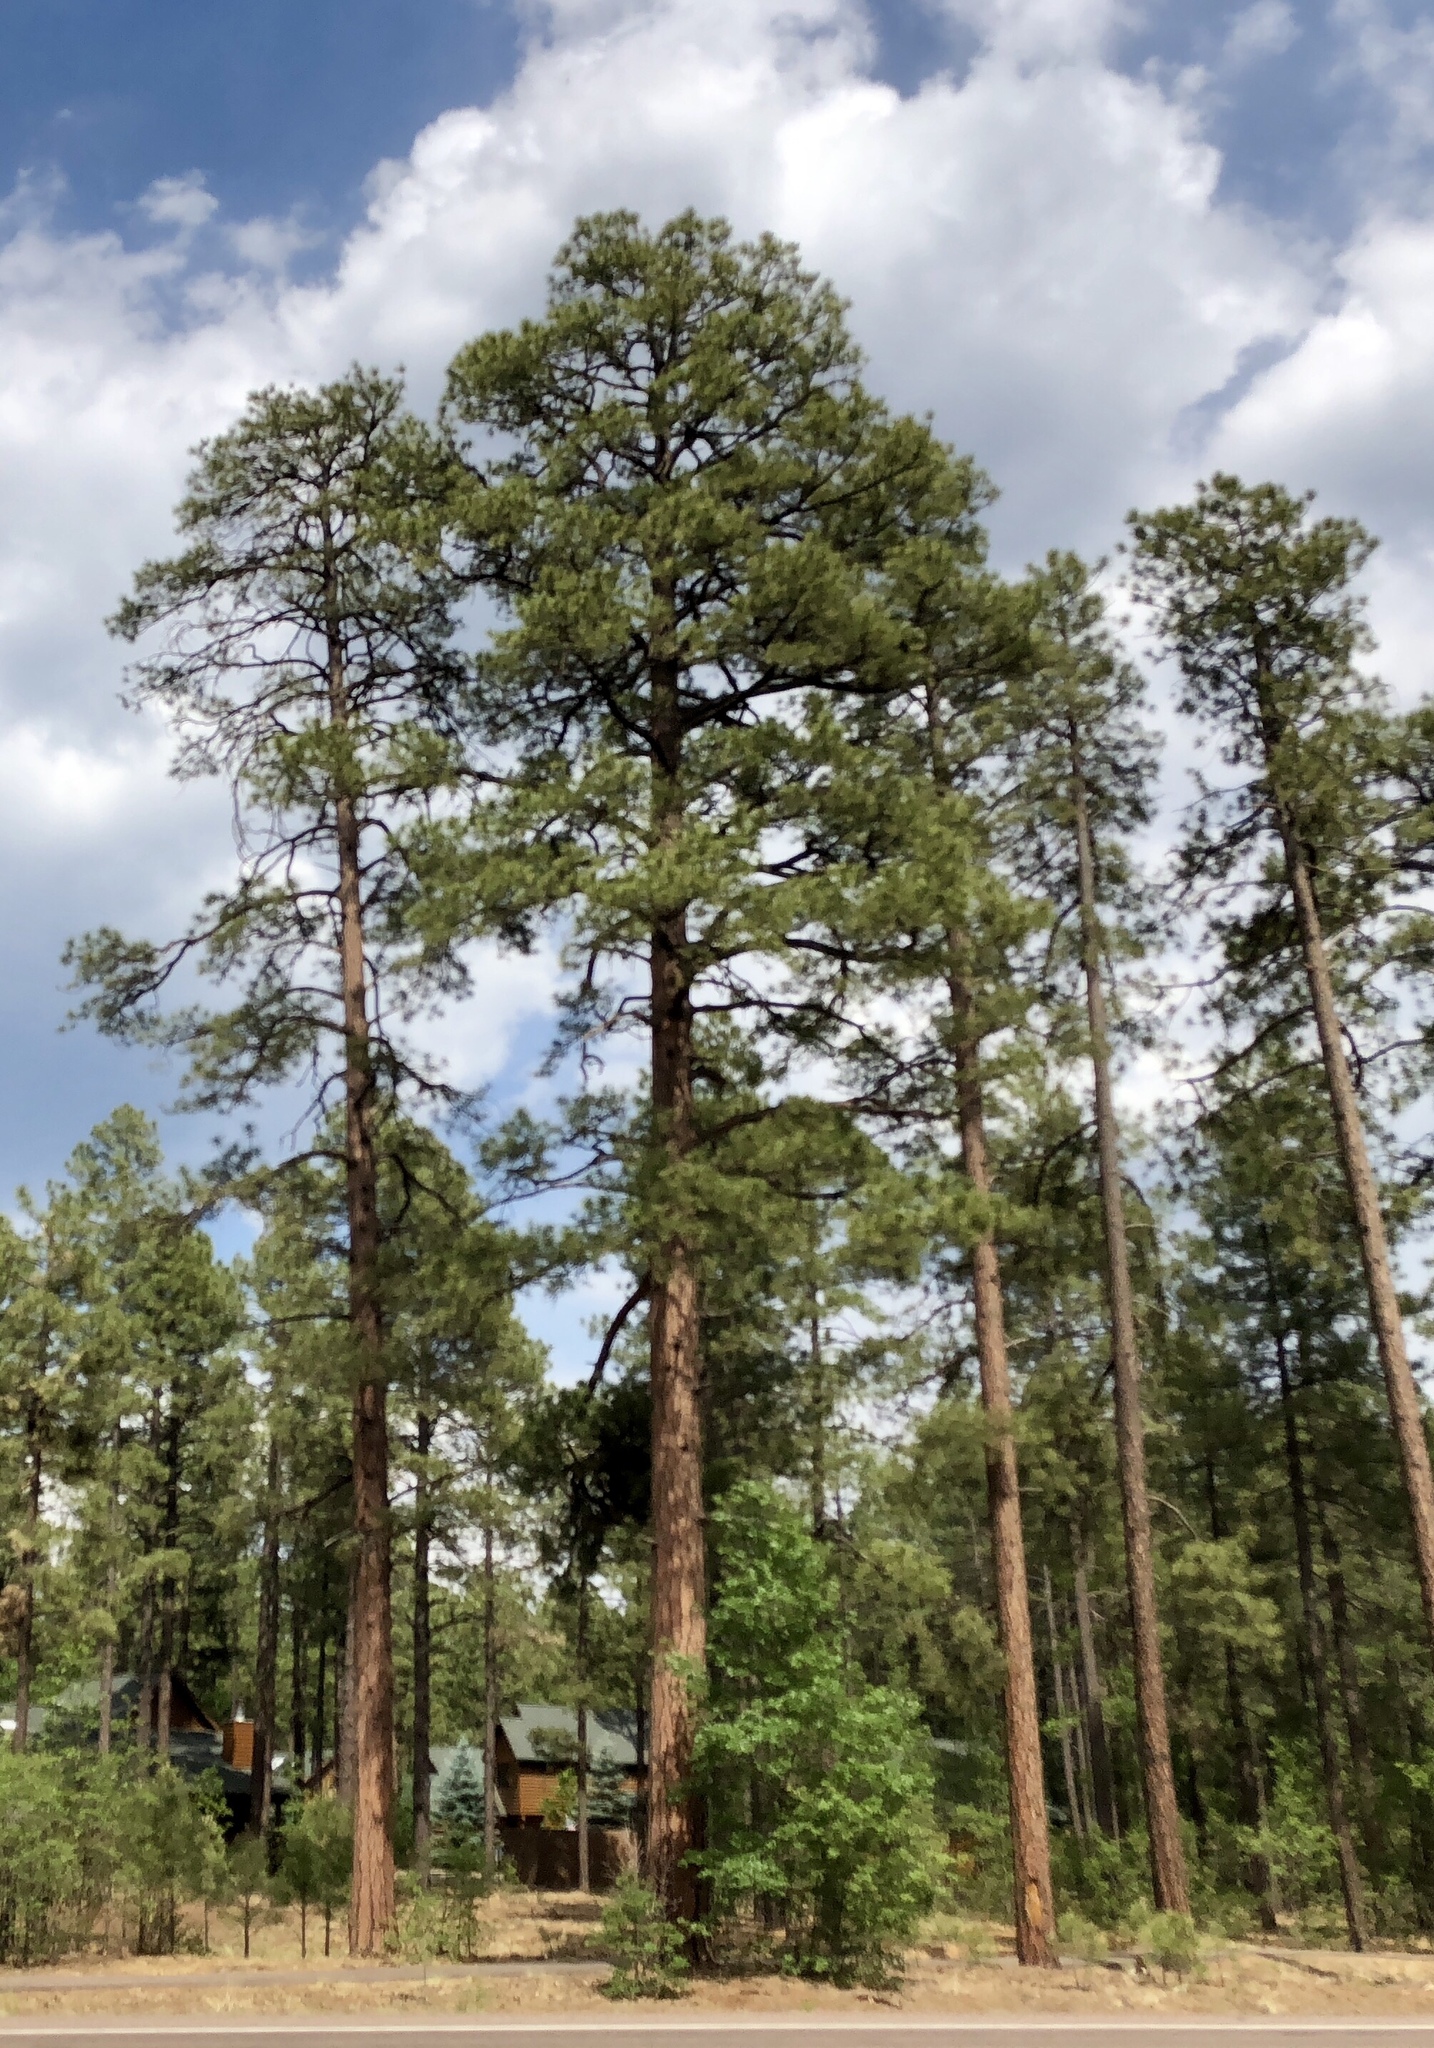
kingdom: Plantae
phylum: Tracheophyta
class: Pinopsida
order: Pinales
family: Pinaceae
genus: Pinus
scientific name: Pinus ponderosa
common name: Western yellow-pine
